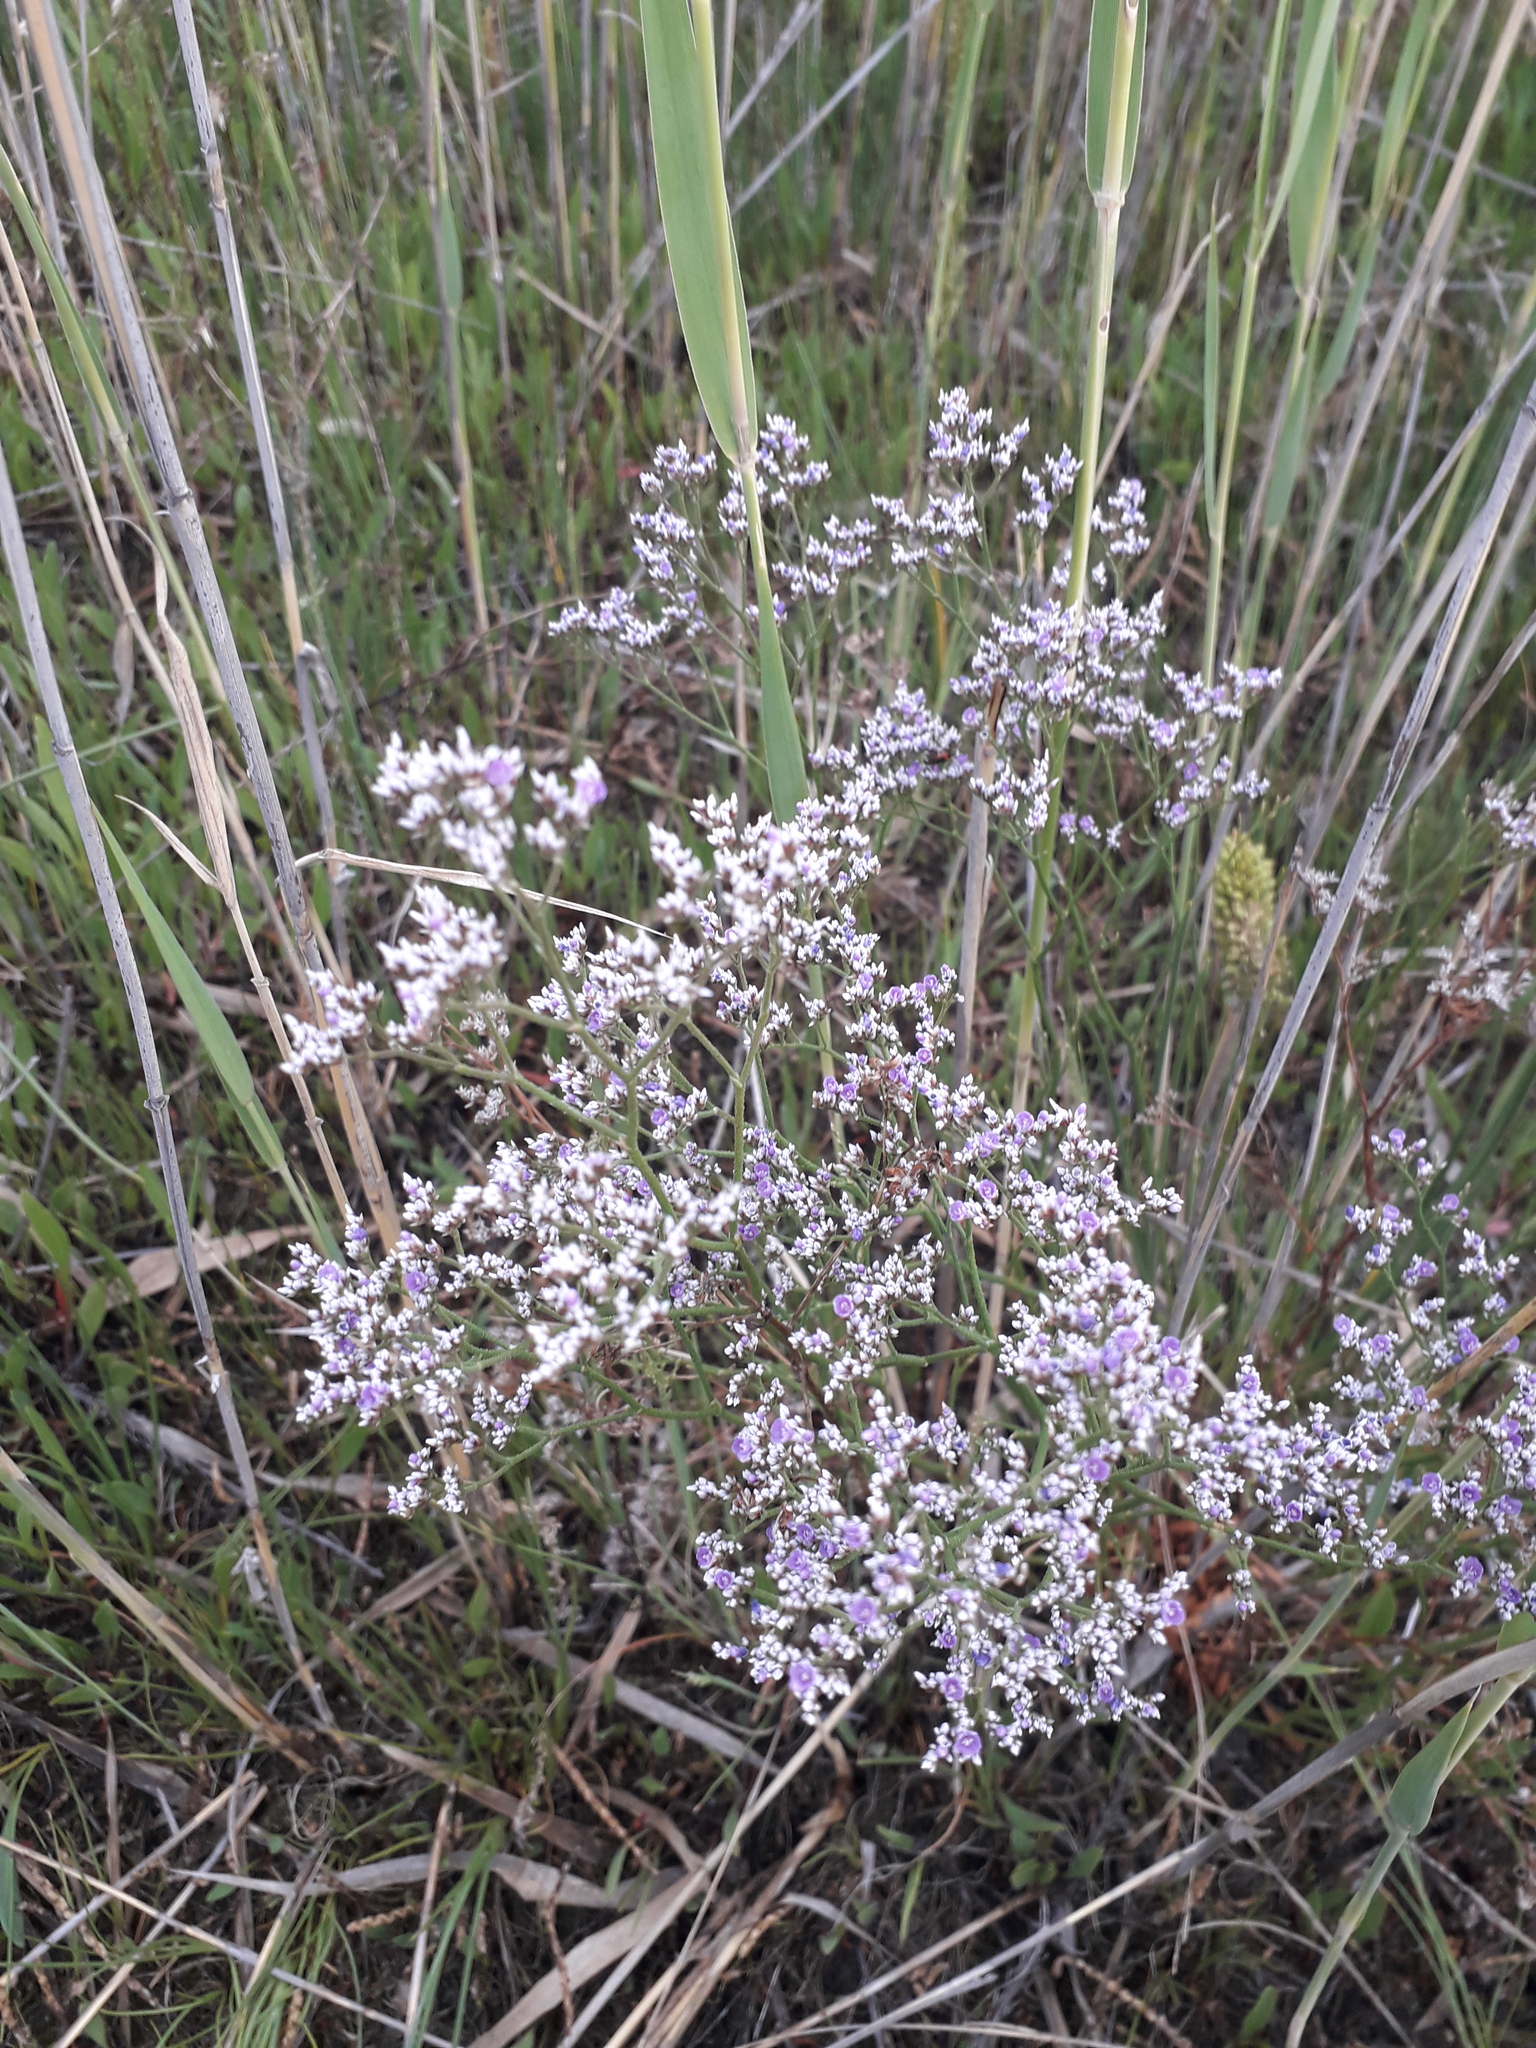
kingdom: Plantae
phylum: Tracheophyta
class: Magnoliopsida
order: Caryophyllales
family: Plumbaginaceae
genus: Limonium
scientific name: Limonium bellidifolium
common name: Matted sea-lavender
